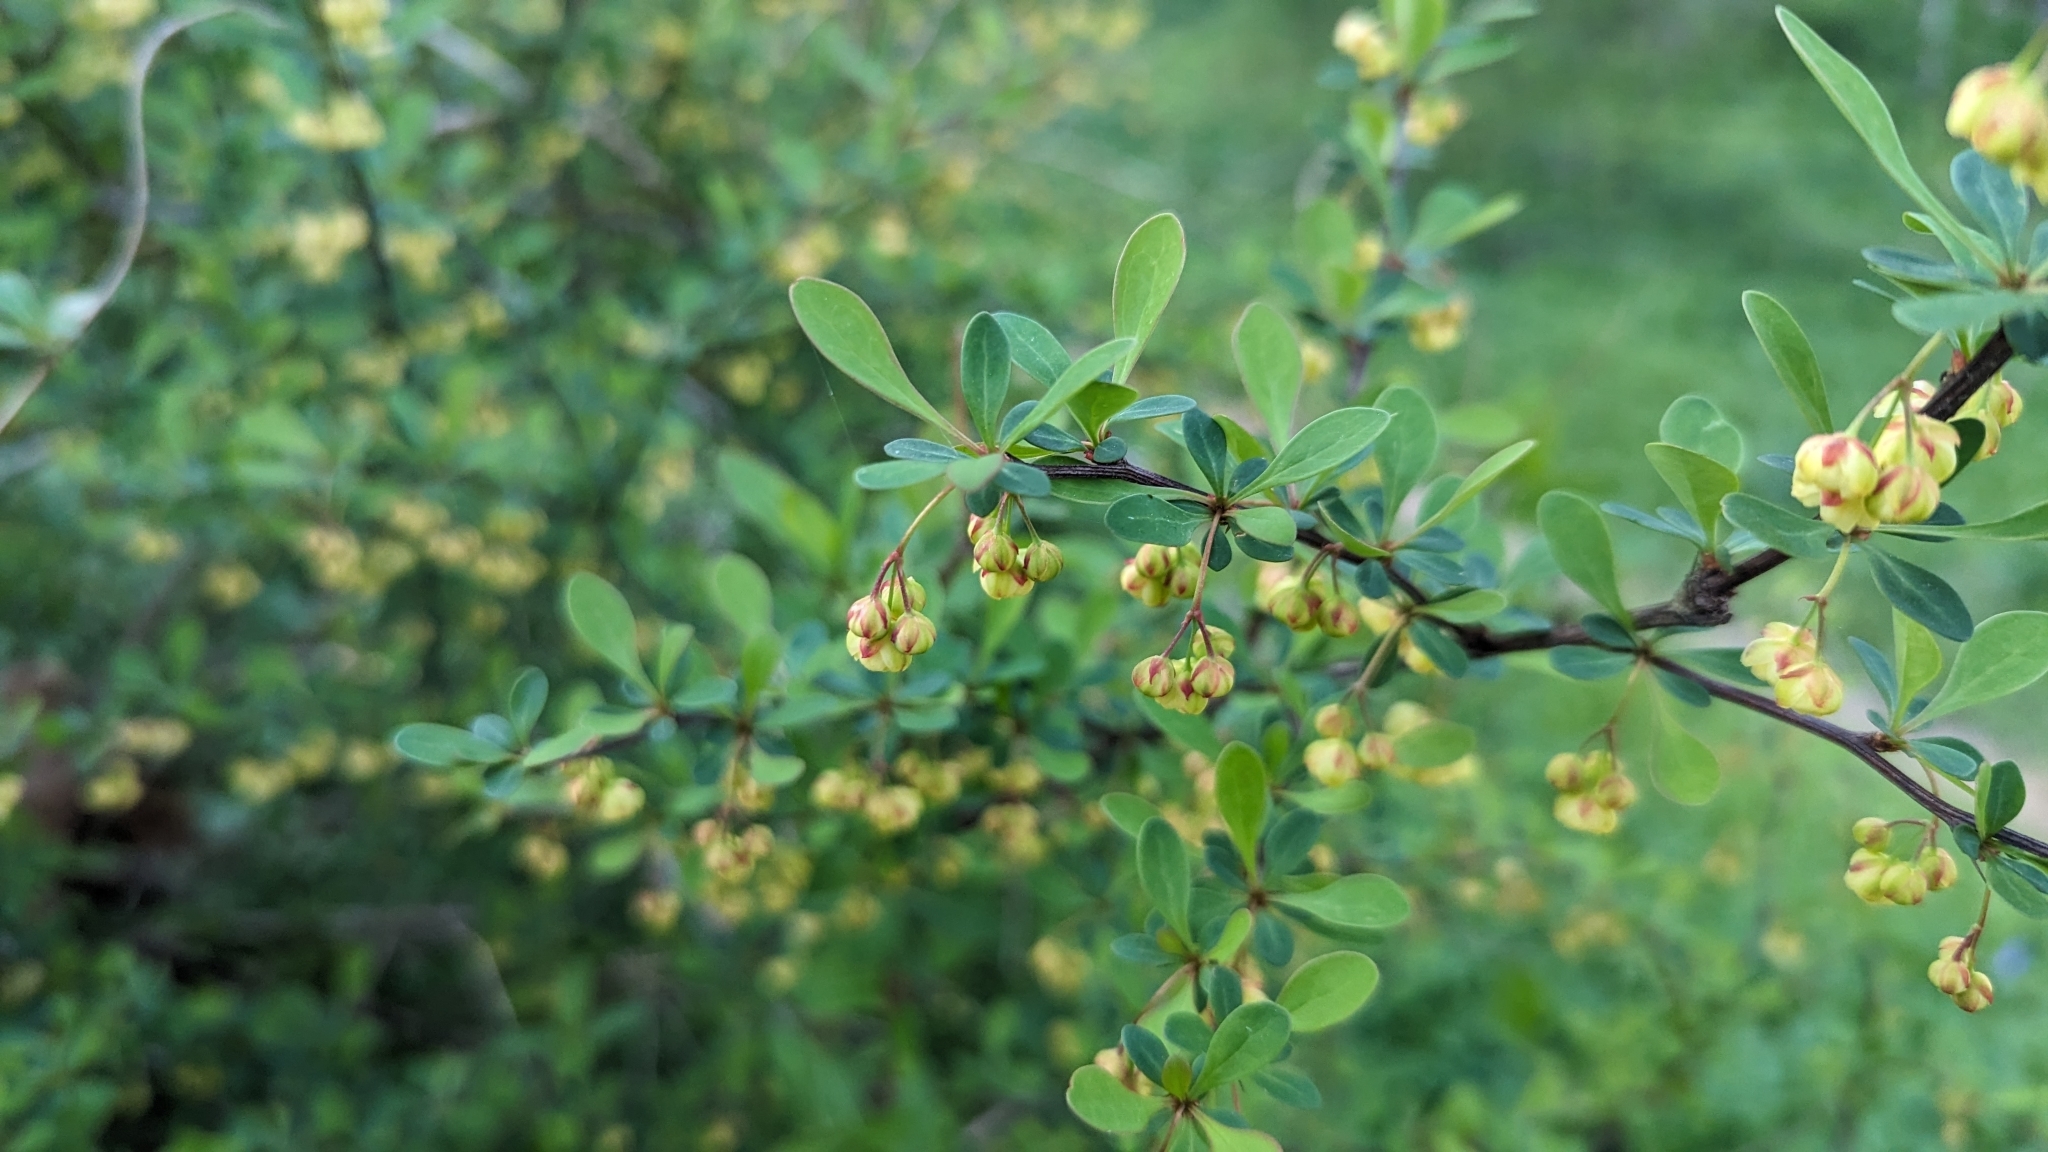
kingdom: Plantae
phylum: Tracheophyta
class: Magnoliopsida
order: Ranunculales
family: Berberidaceae
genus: Berberis
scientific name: Berberis thunbergii
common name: Japanese barberry
